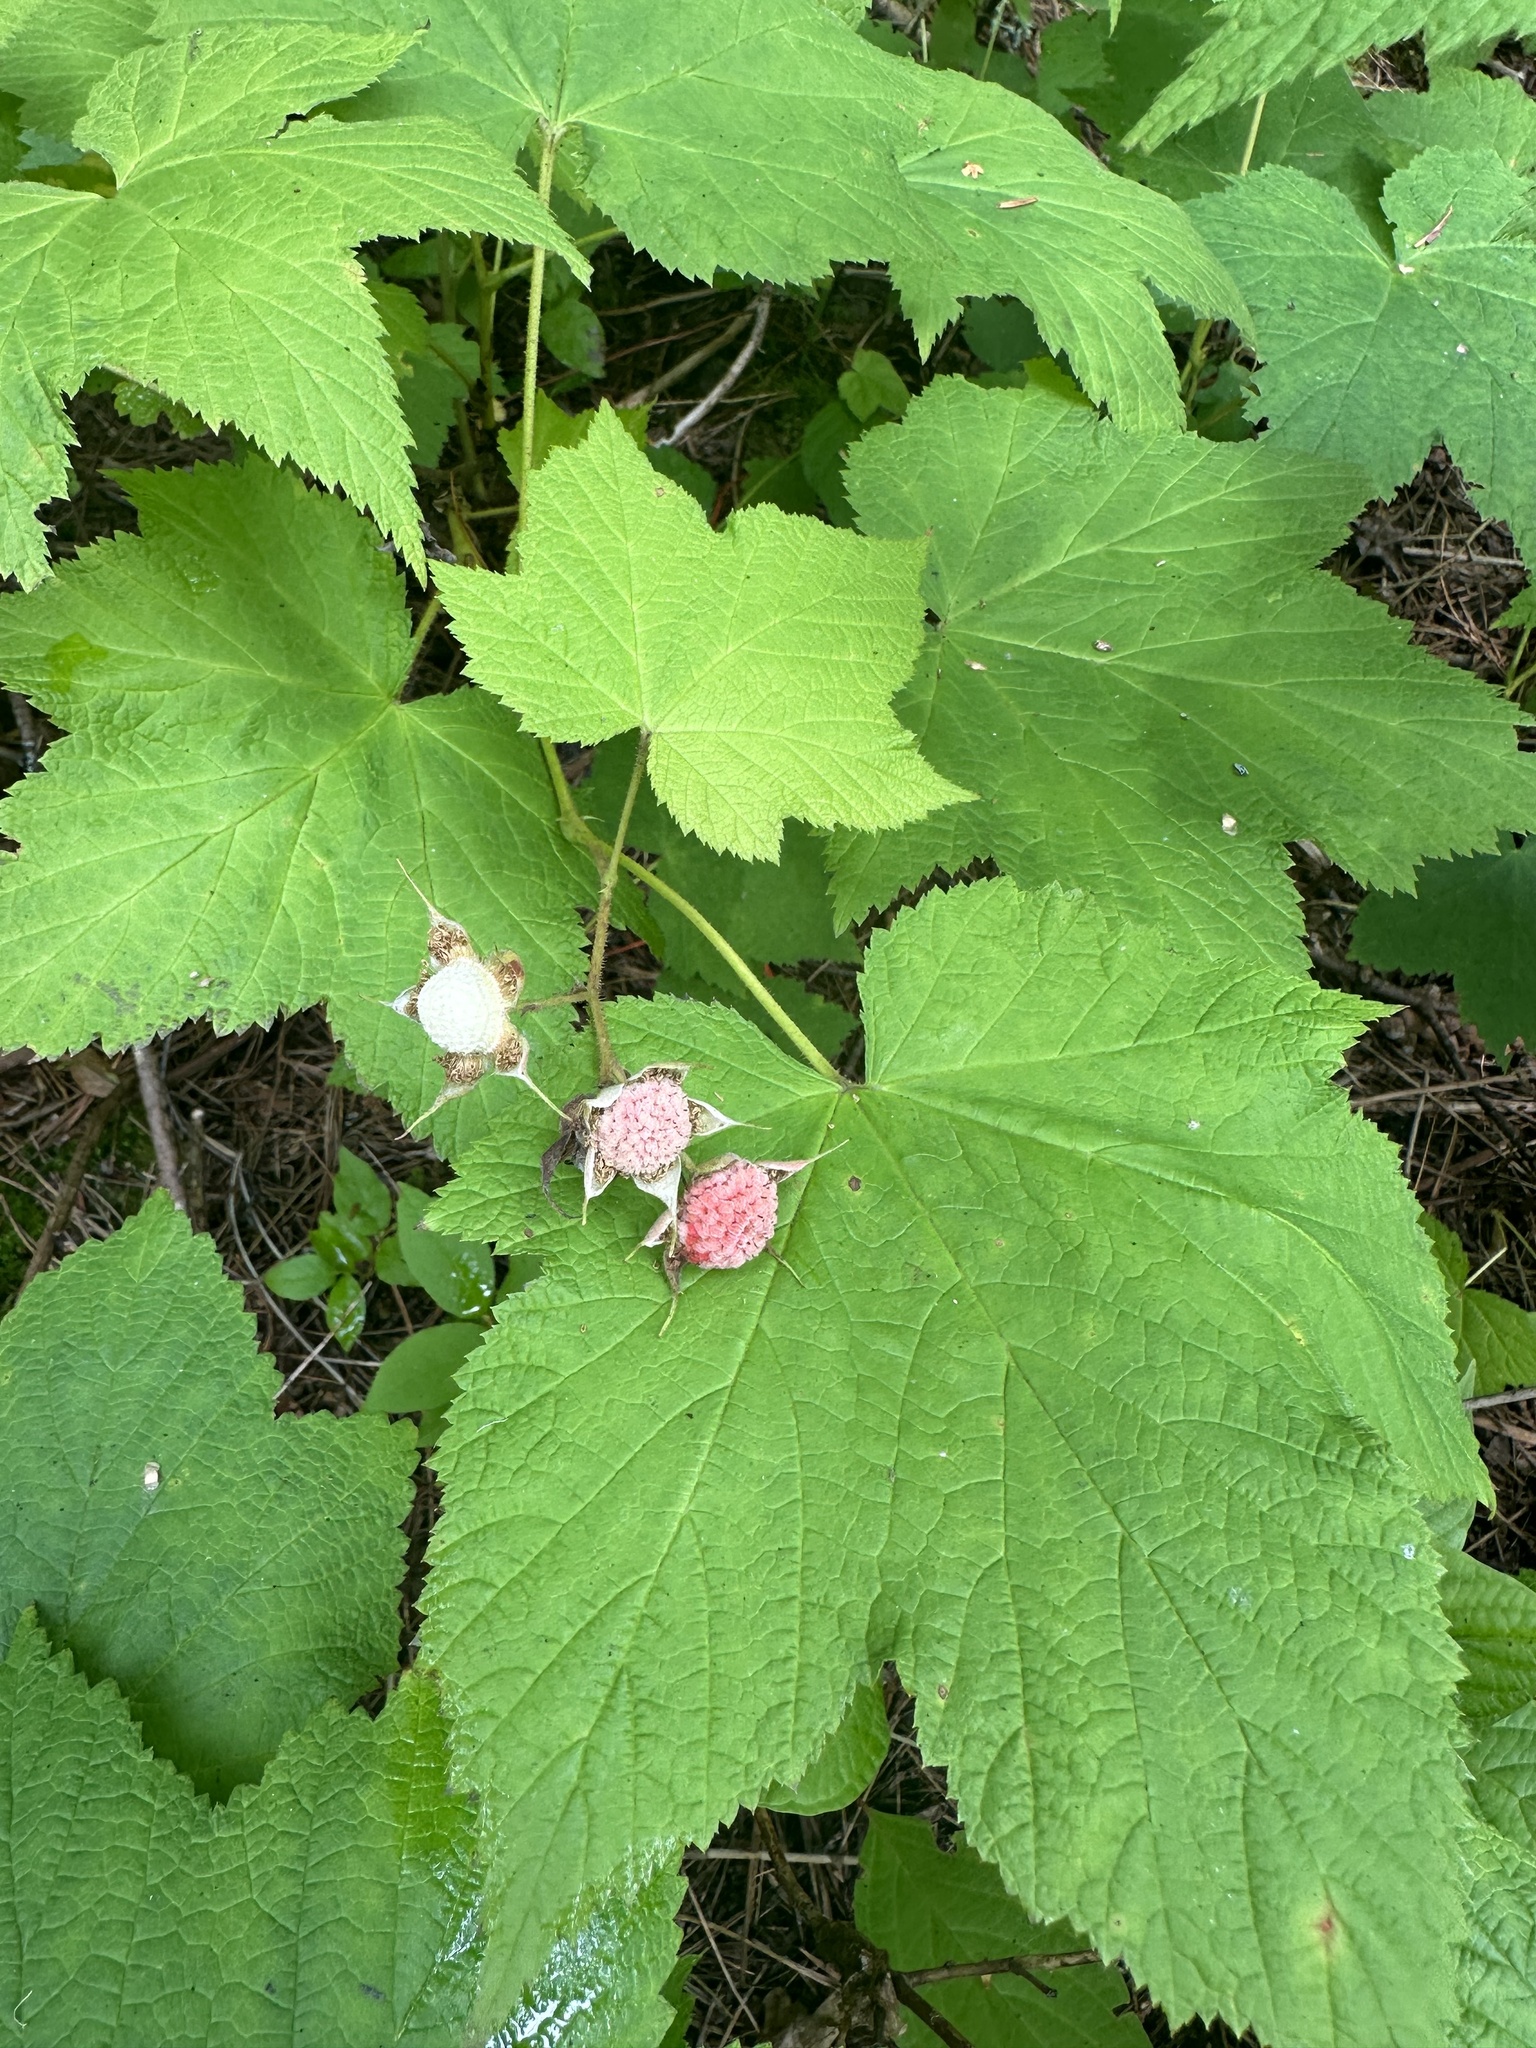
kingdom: Plantae
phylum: Tracheophyta
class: Magnoliopsida
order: Rosales
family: Rosaceae
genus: Rubus
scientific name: Rubus parviflorus
